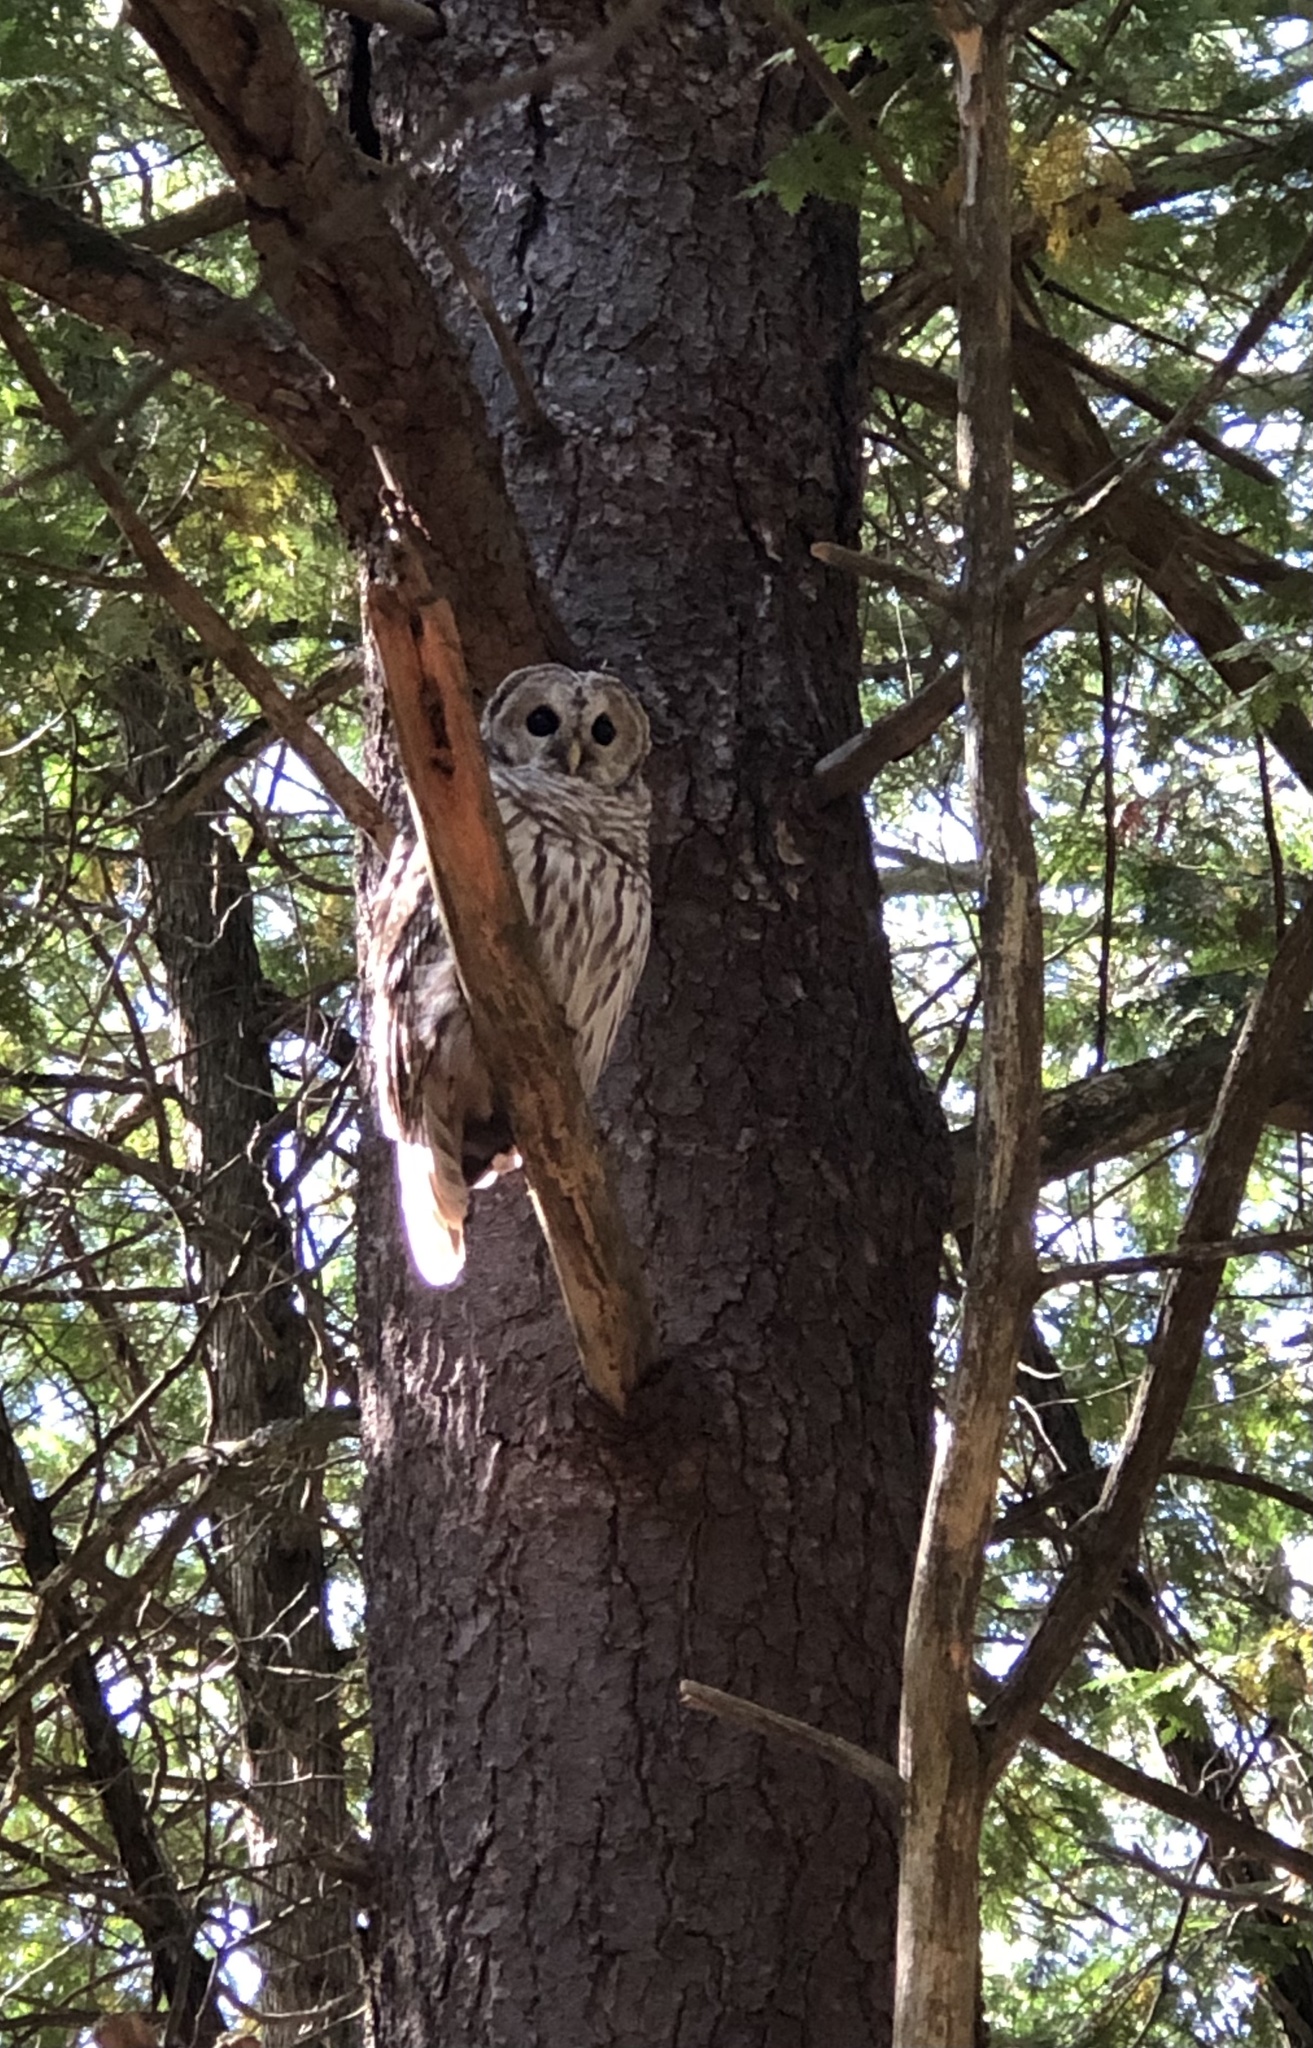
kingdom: Animalia
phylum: Chordata
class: Aves
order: Strigiformes
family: Strigidae
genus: Strix
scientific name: Strix varia
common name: Barred owl
